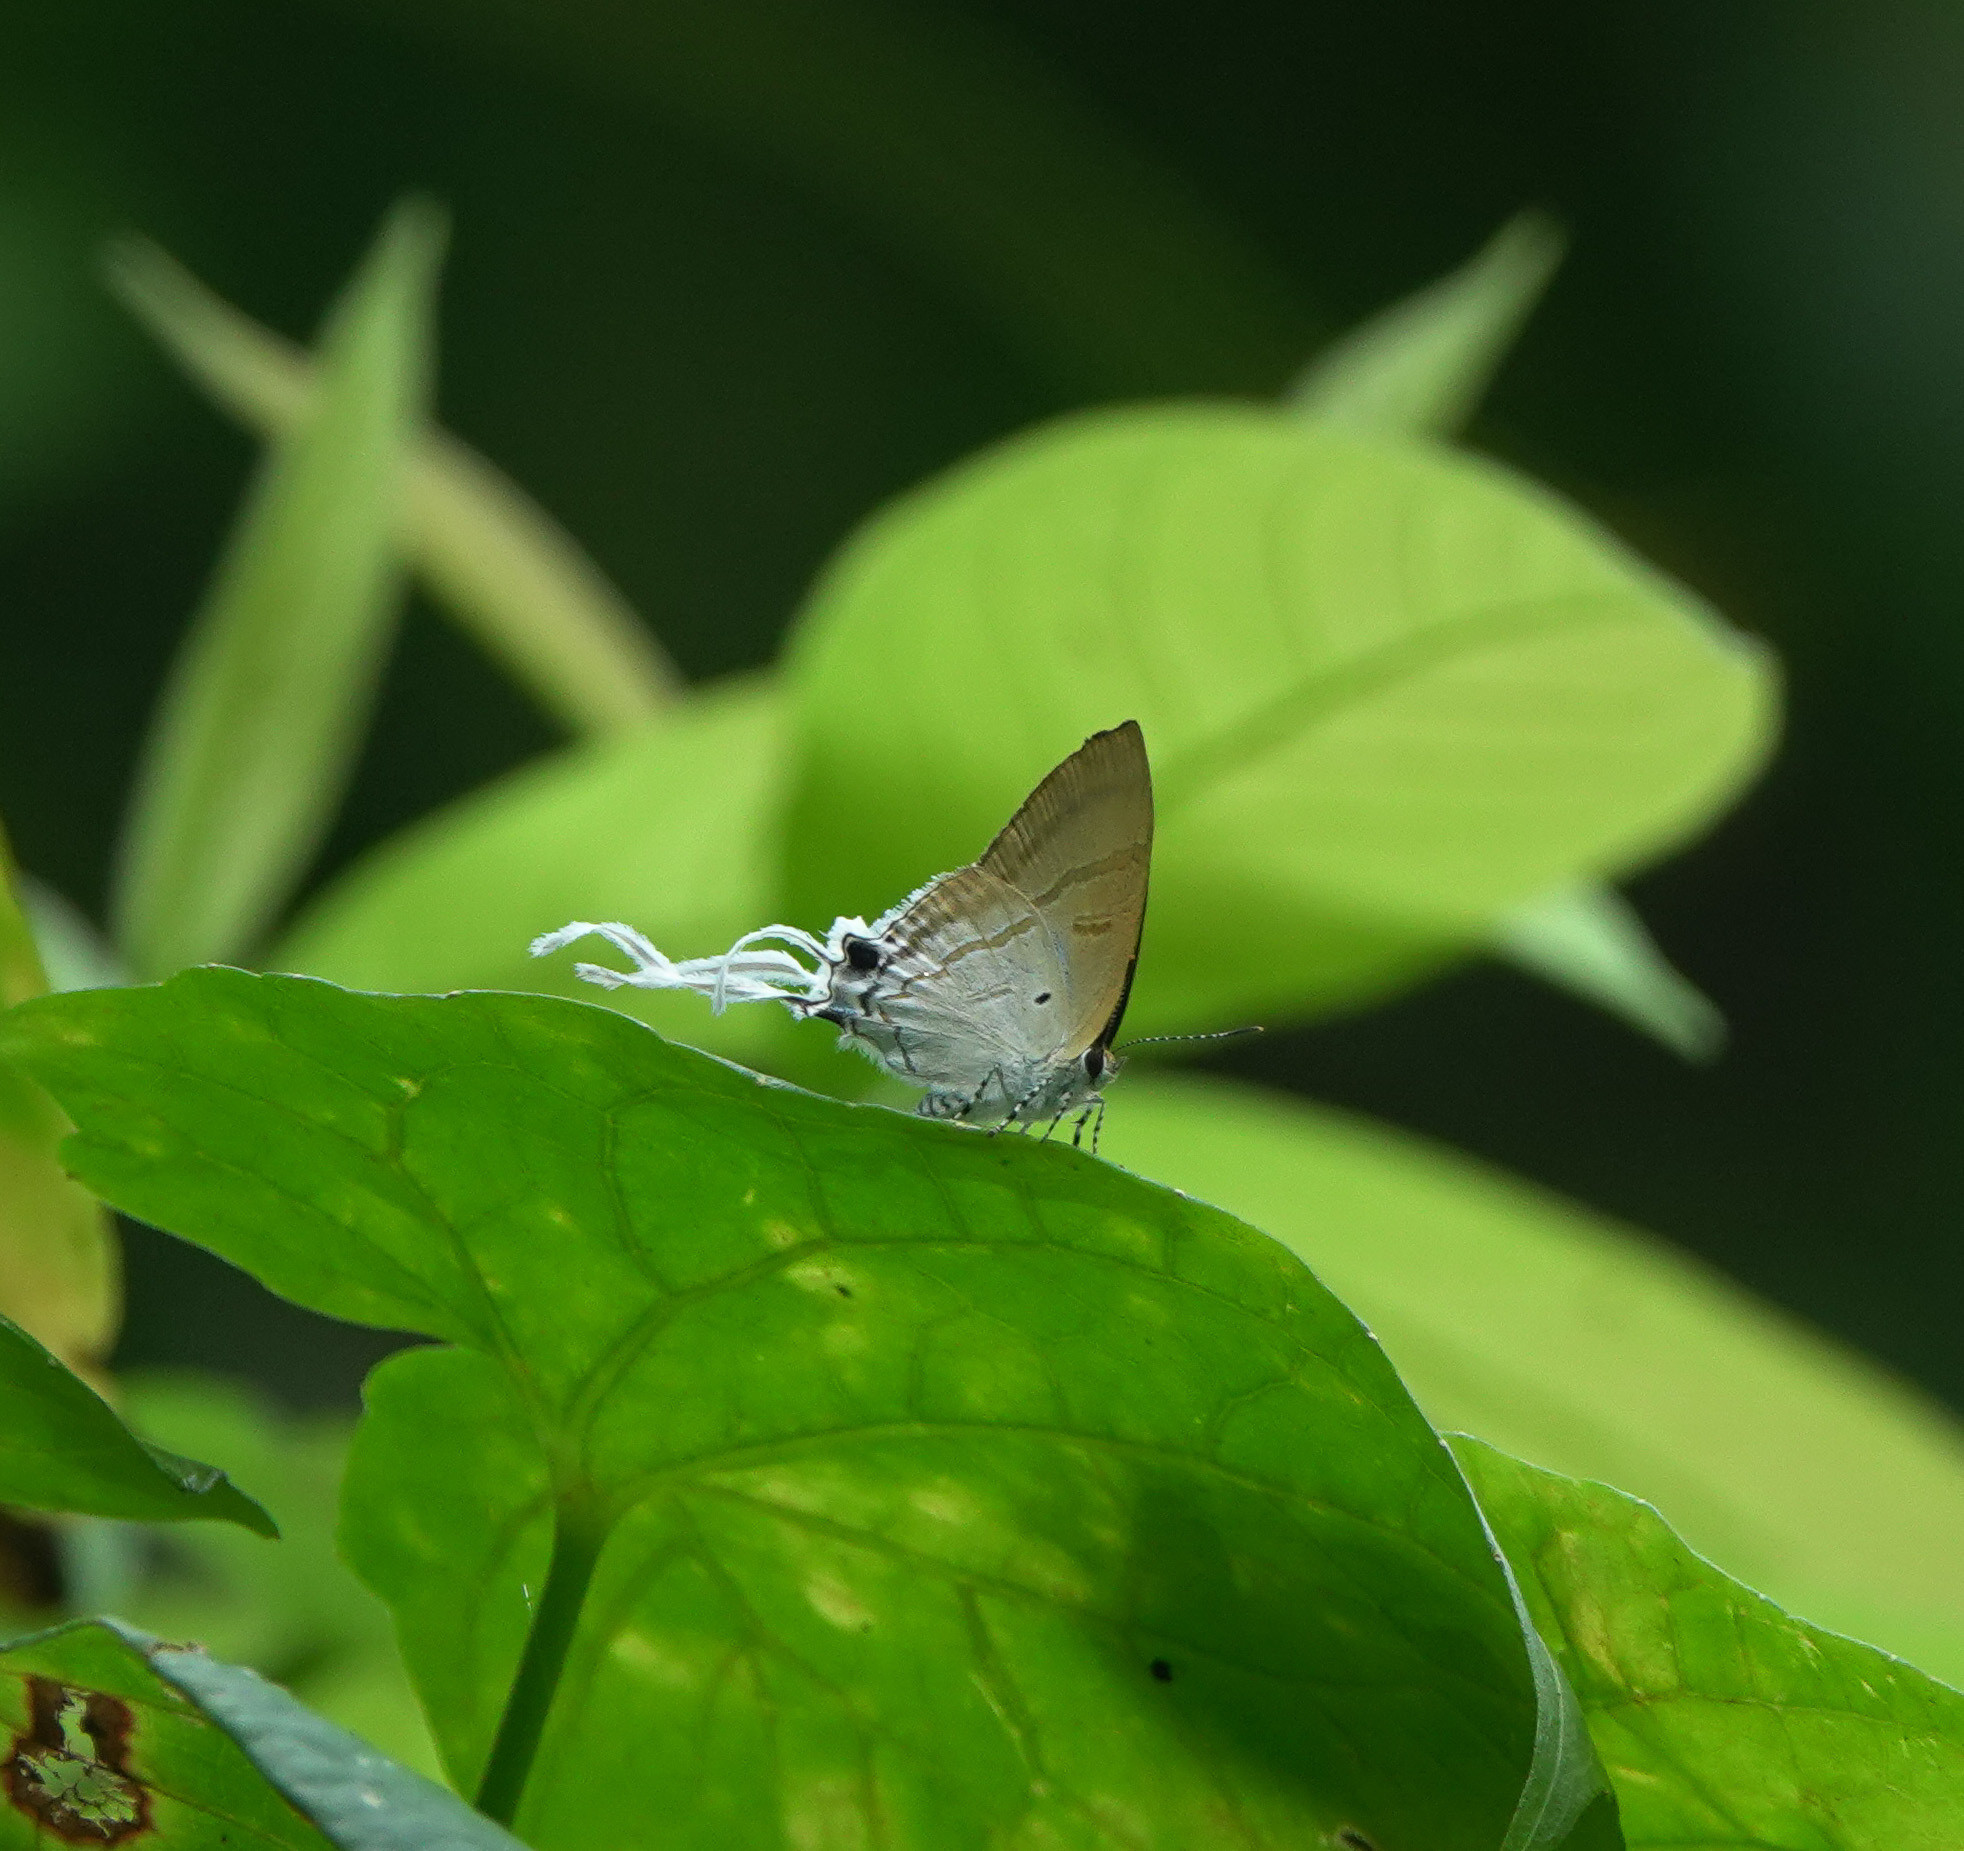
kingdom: Animalia
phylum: Arthropoda
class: Insecta
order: Lepidoptera
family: Lycaenidae
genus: Zeltus
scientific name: Zeltus amasa
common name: Fluffy tit
